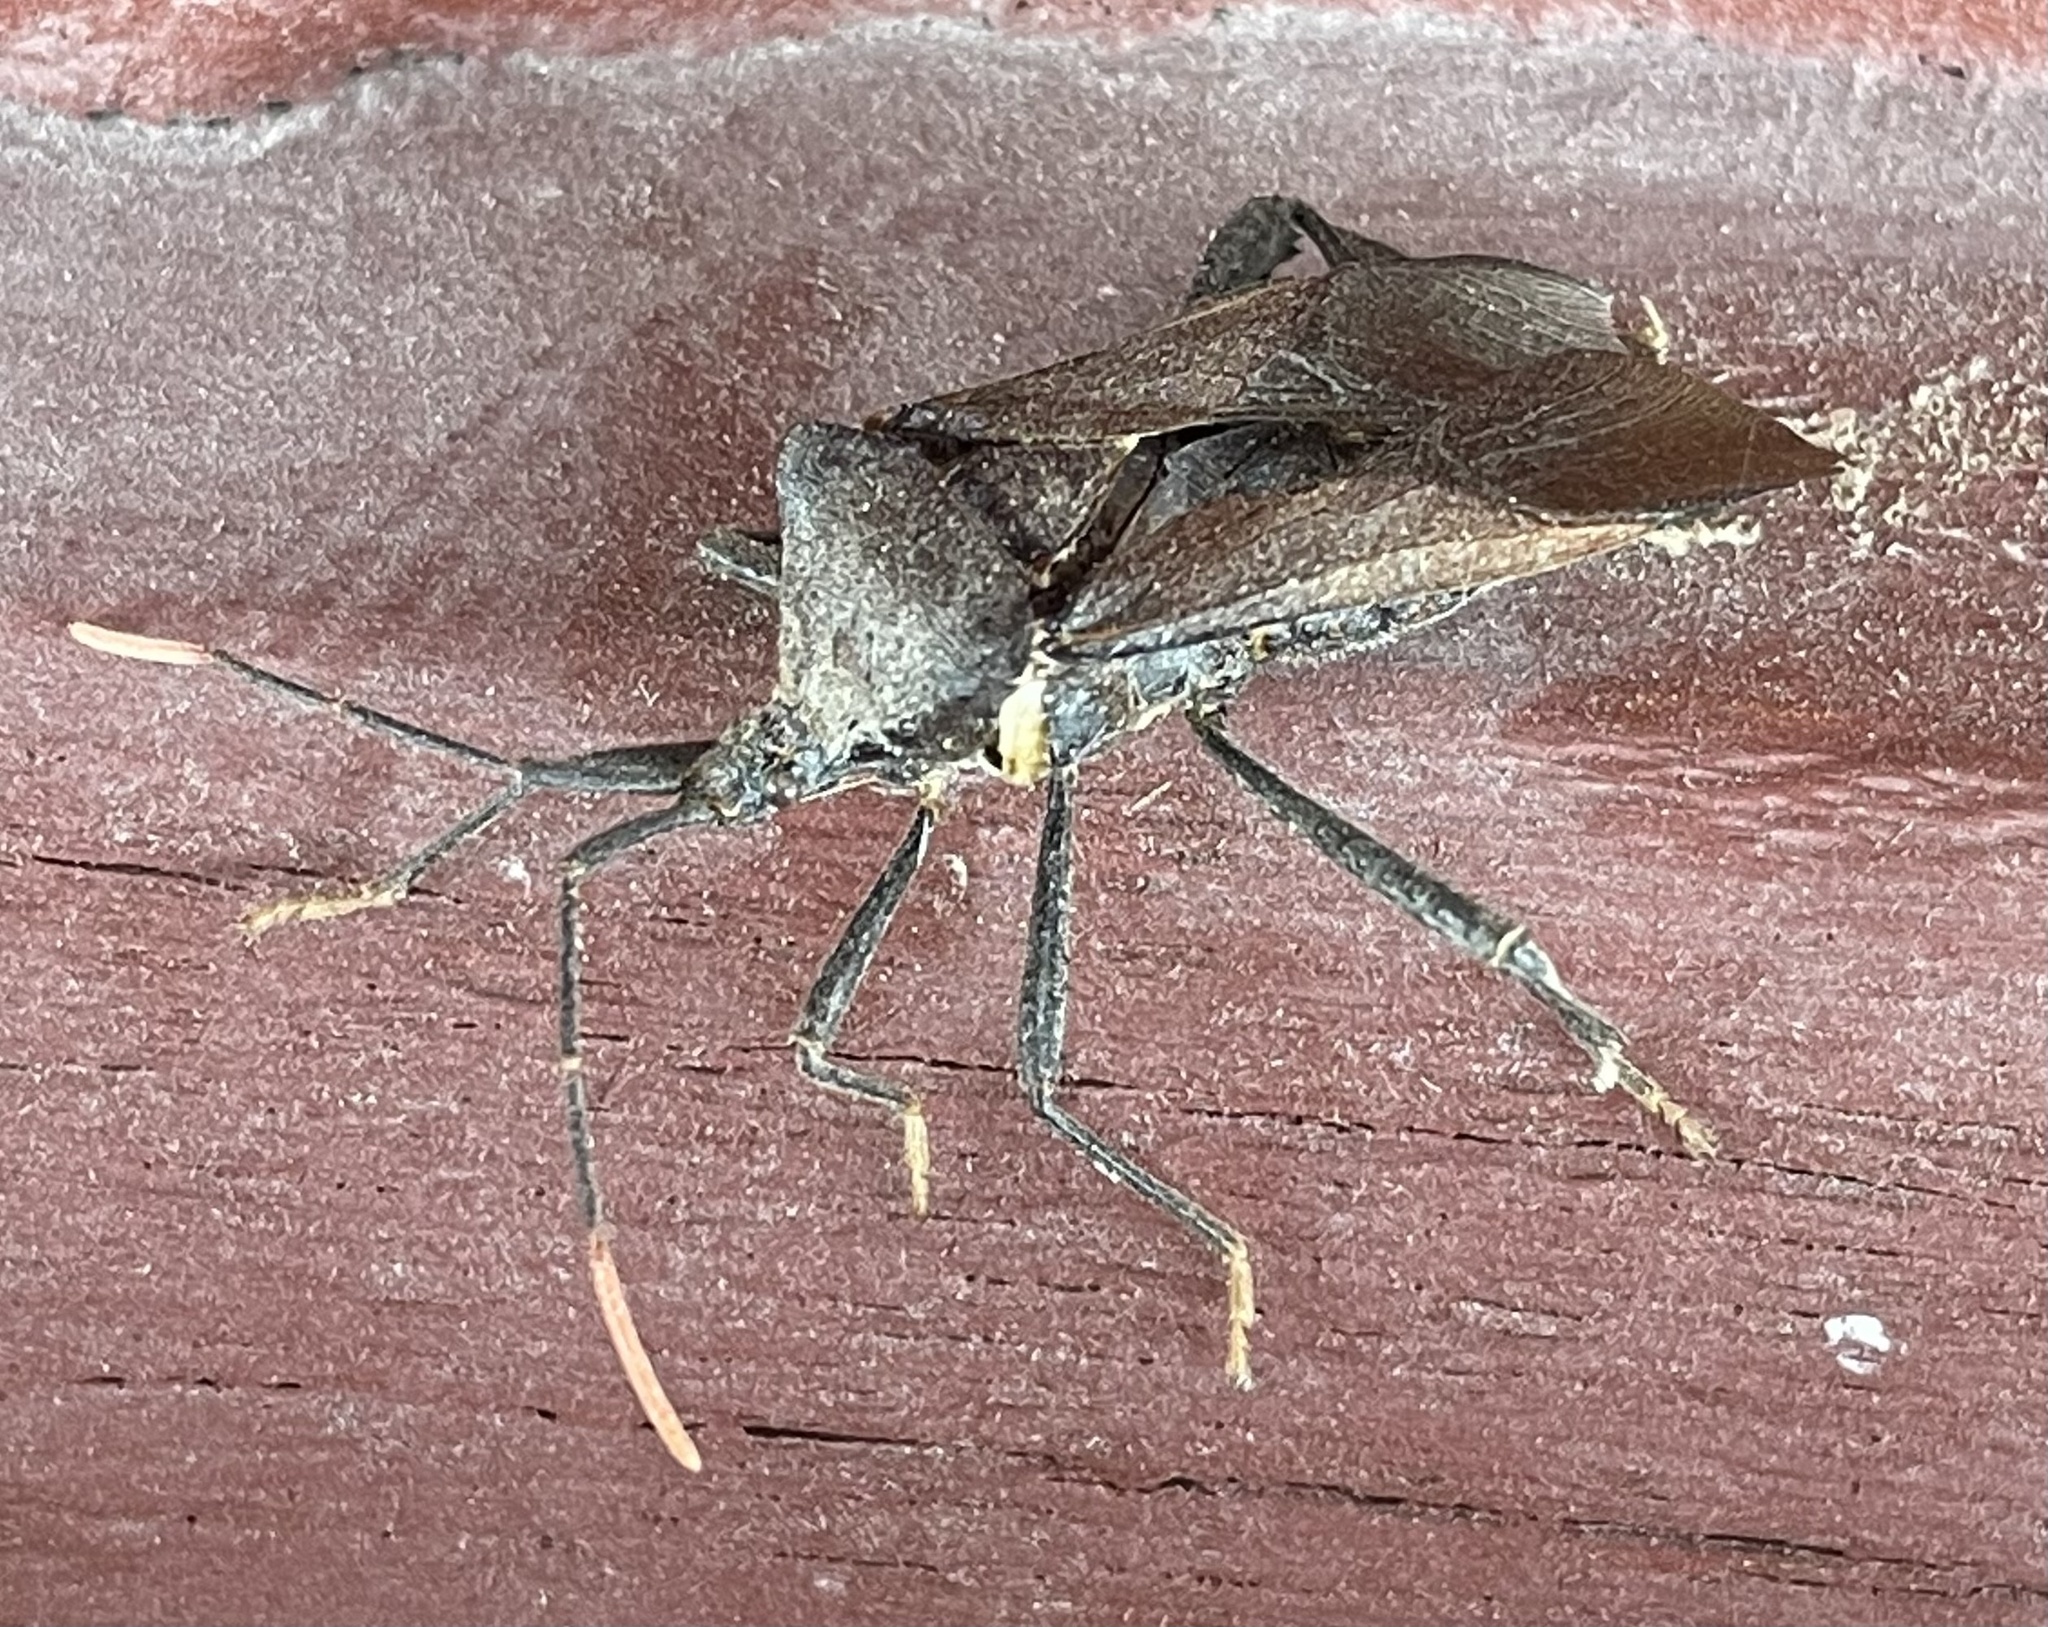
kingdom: Animalia
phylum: Arthropoda
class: Insecta
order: Hemiptera
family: Coreidae
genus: Acanthocephala
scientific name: Acanthocephala terminalis
